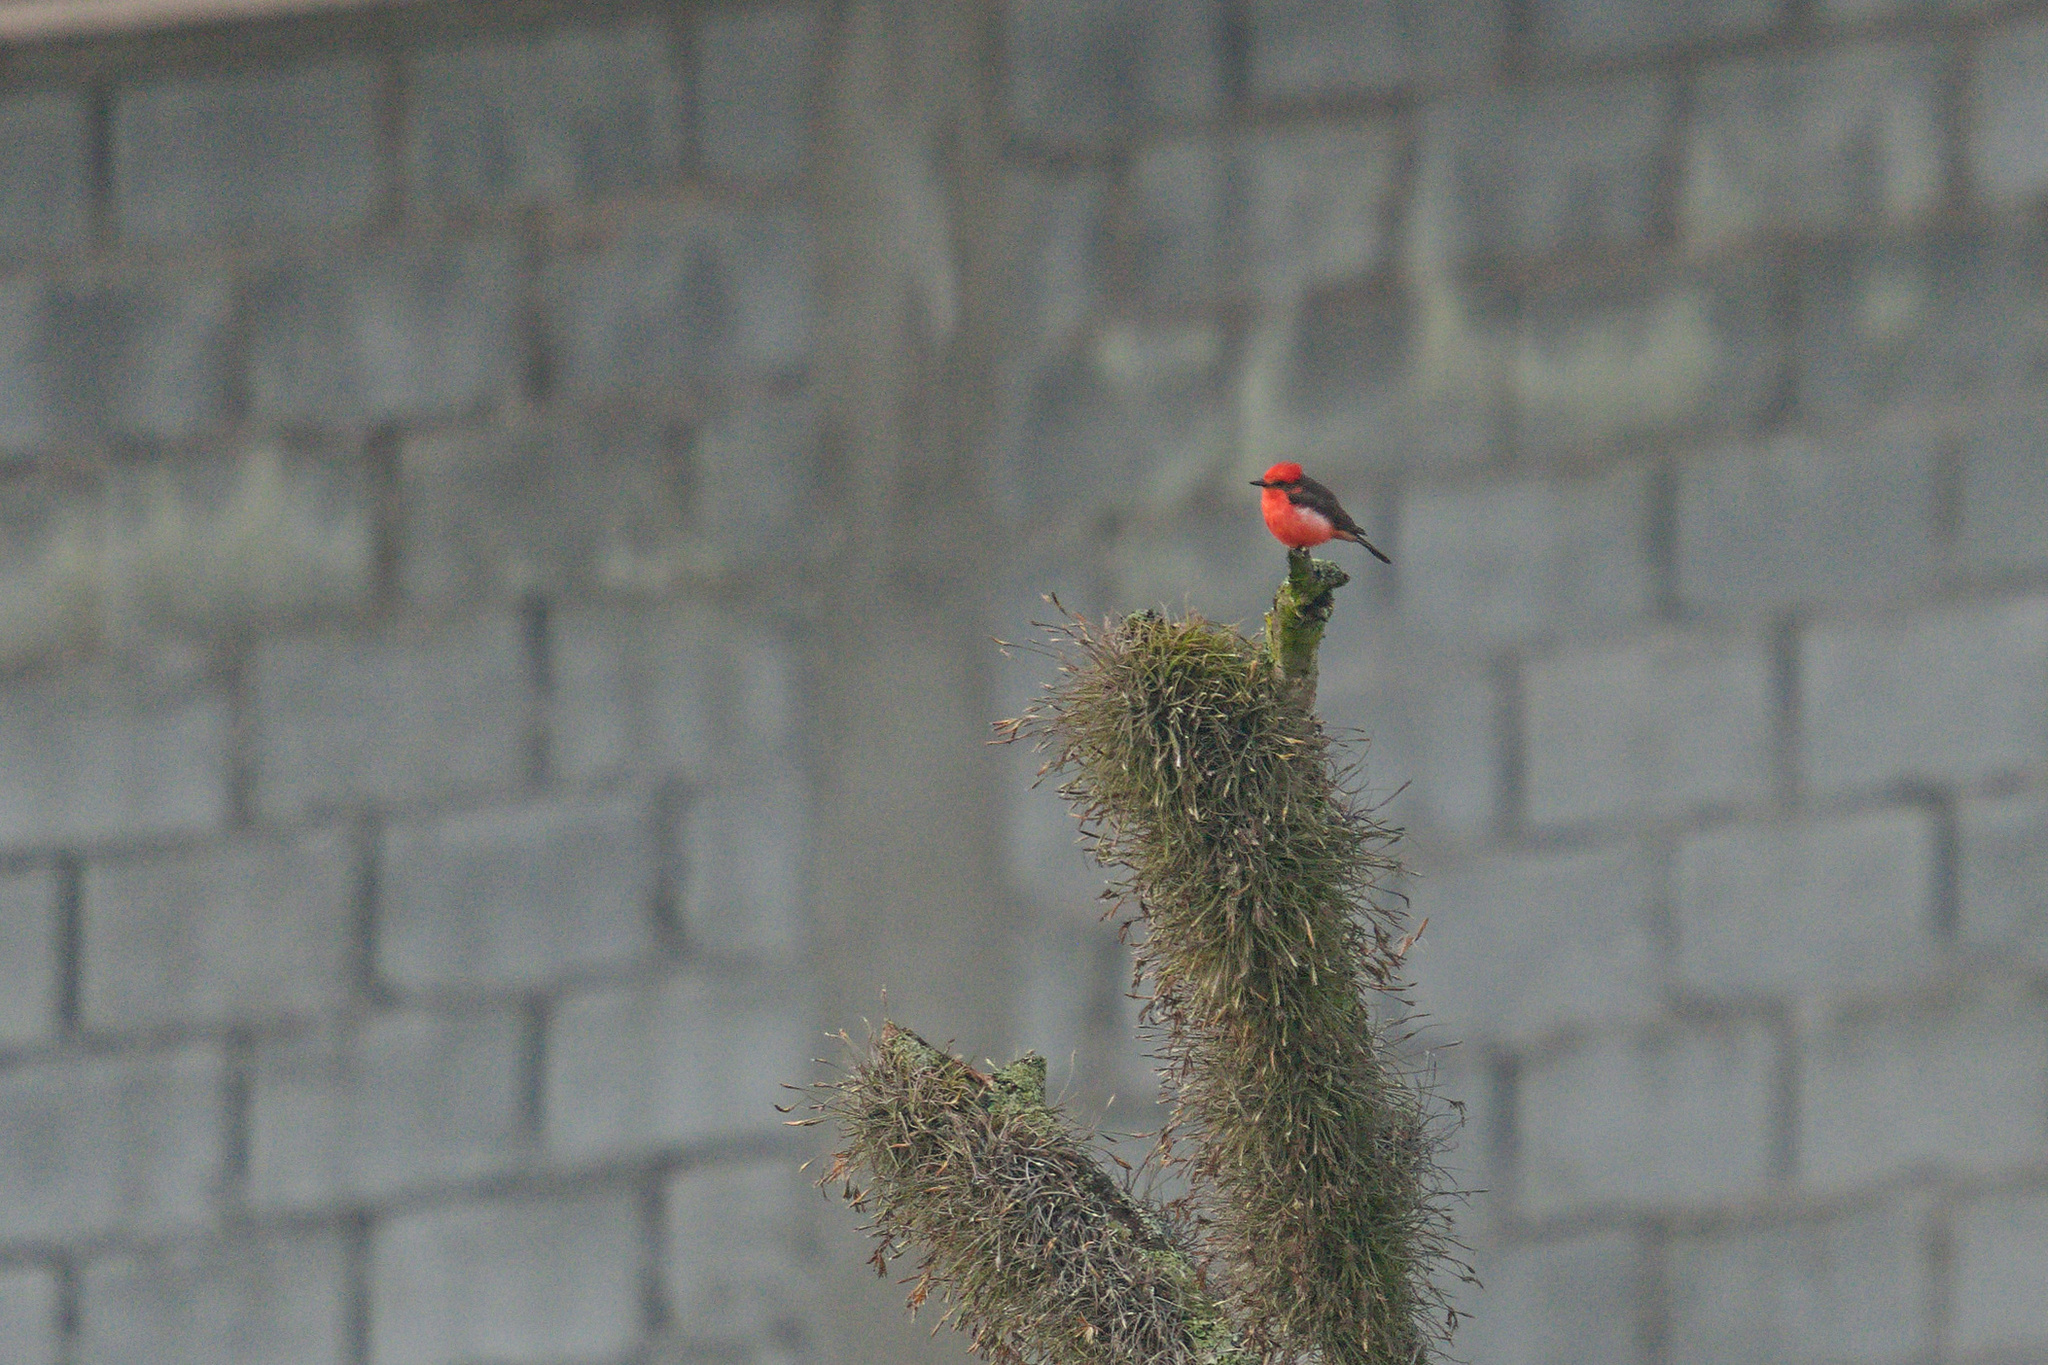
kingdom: Animalia
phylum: Chordata
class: Aves
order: Passeriformes
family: Tyrannidae
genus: Pyrocephalus
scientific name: Pyrocephalus rubinus
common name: Vermilion flycatcher
